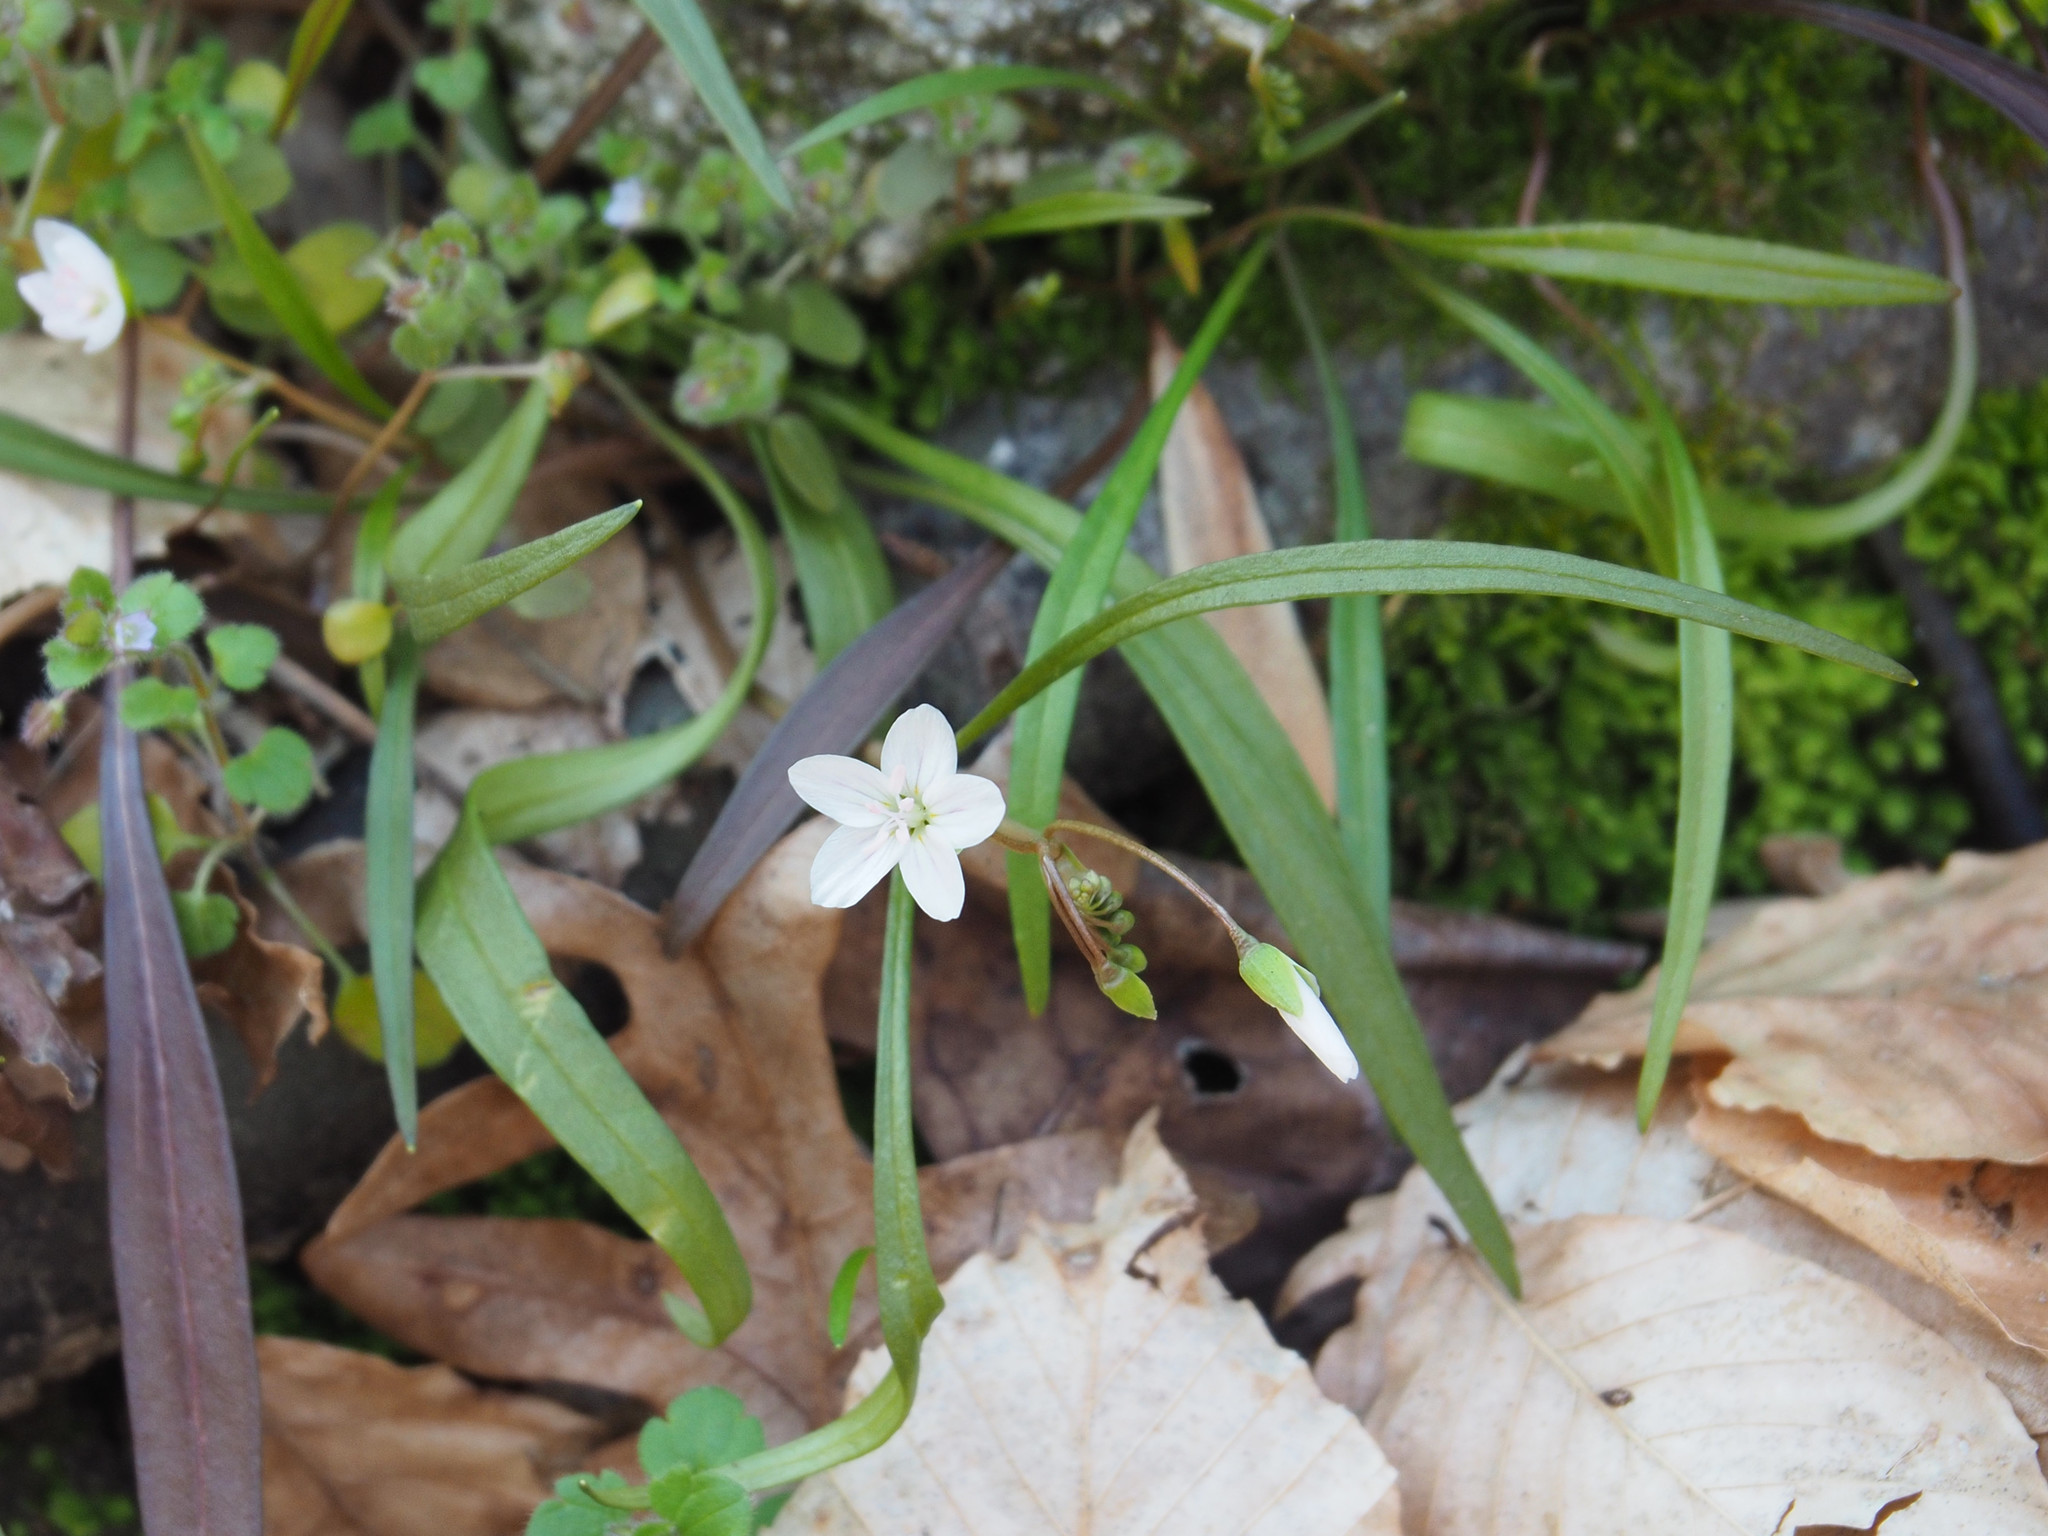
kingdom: Plantae
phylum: Tracheophyta
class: Magnoliopsida
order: Caryophyllales
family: Montiaceae
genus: Claytonia
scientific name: Claytonia virginica
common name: Virginia springbeauty
